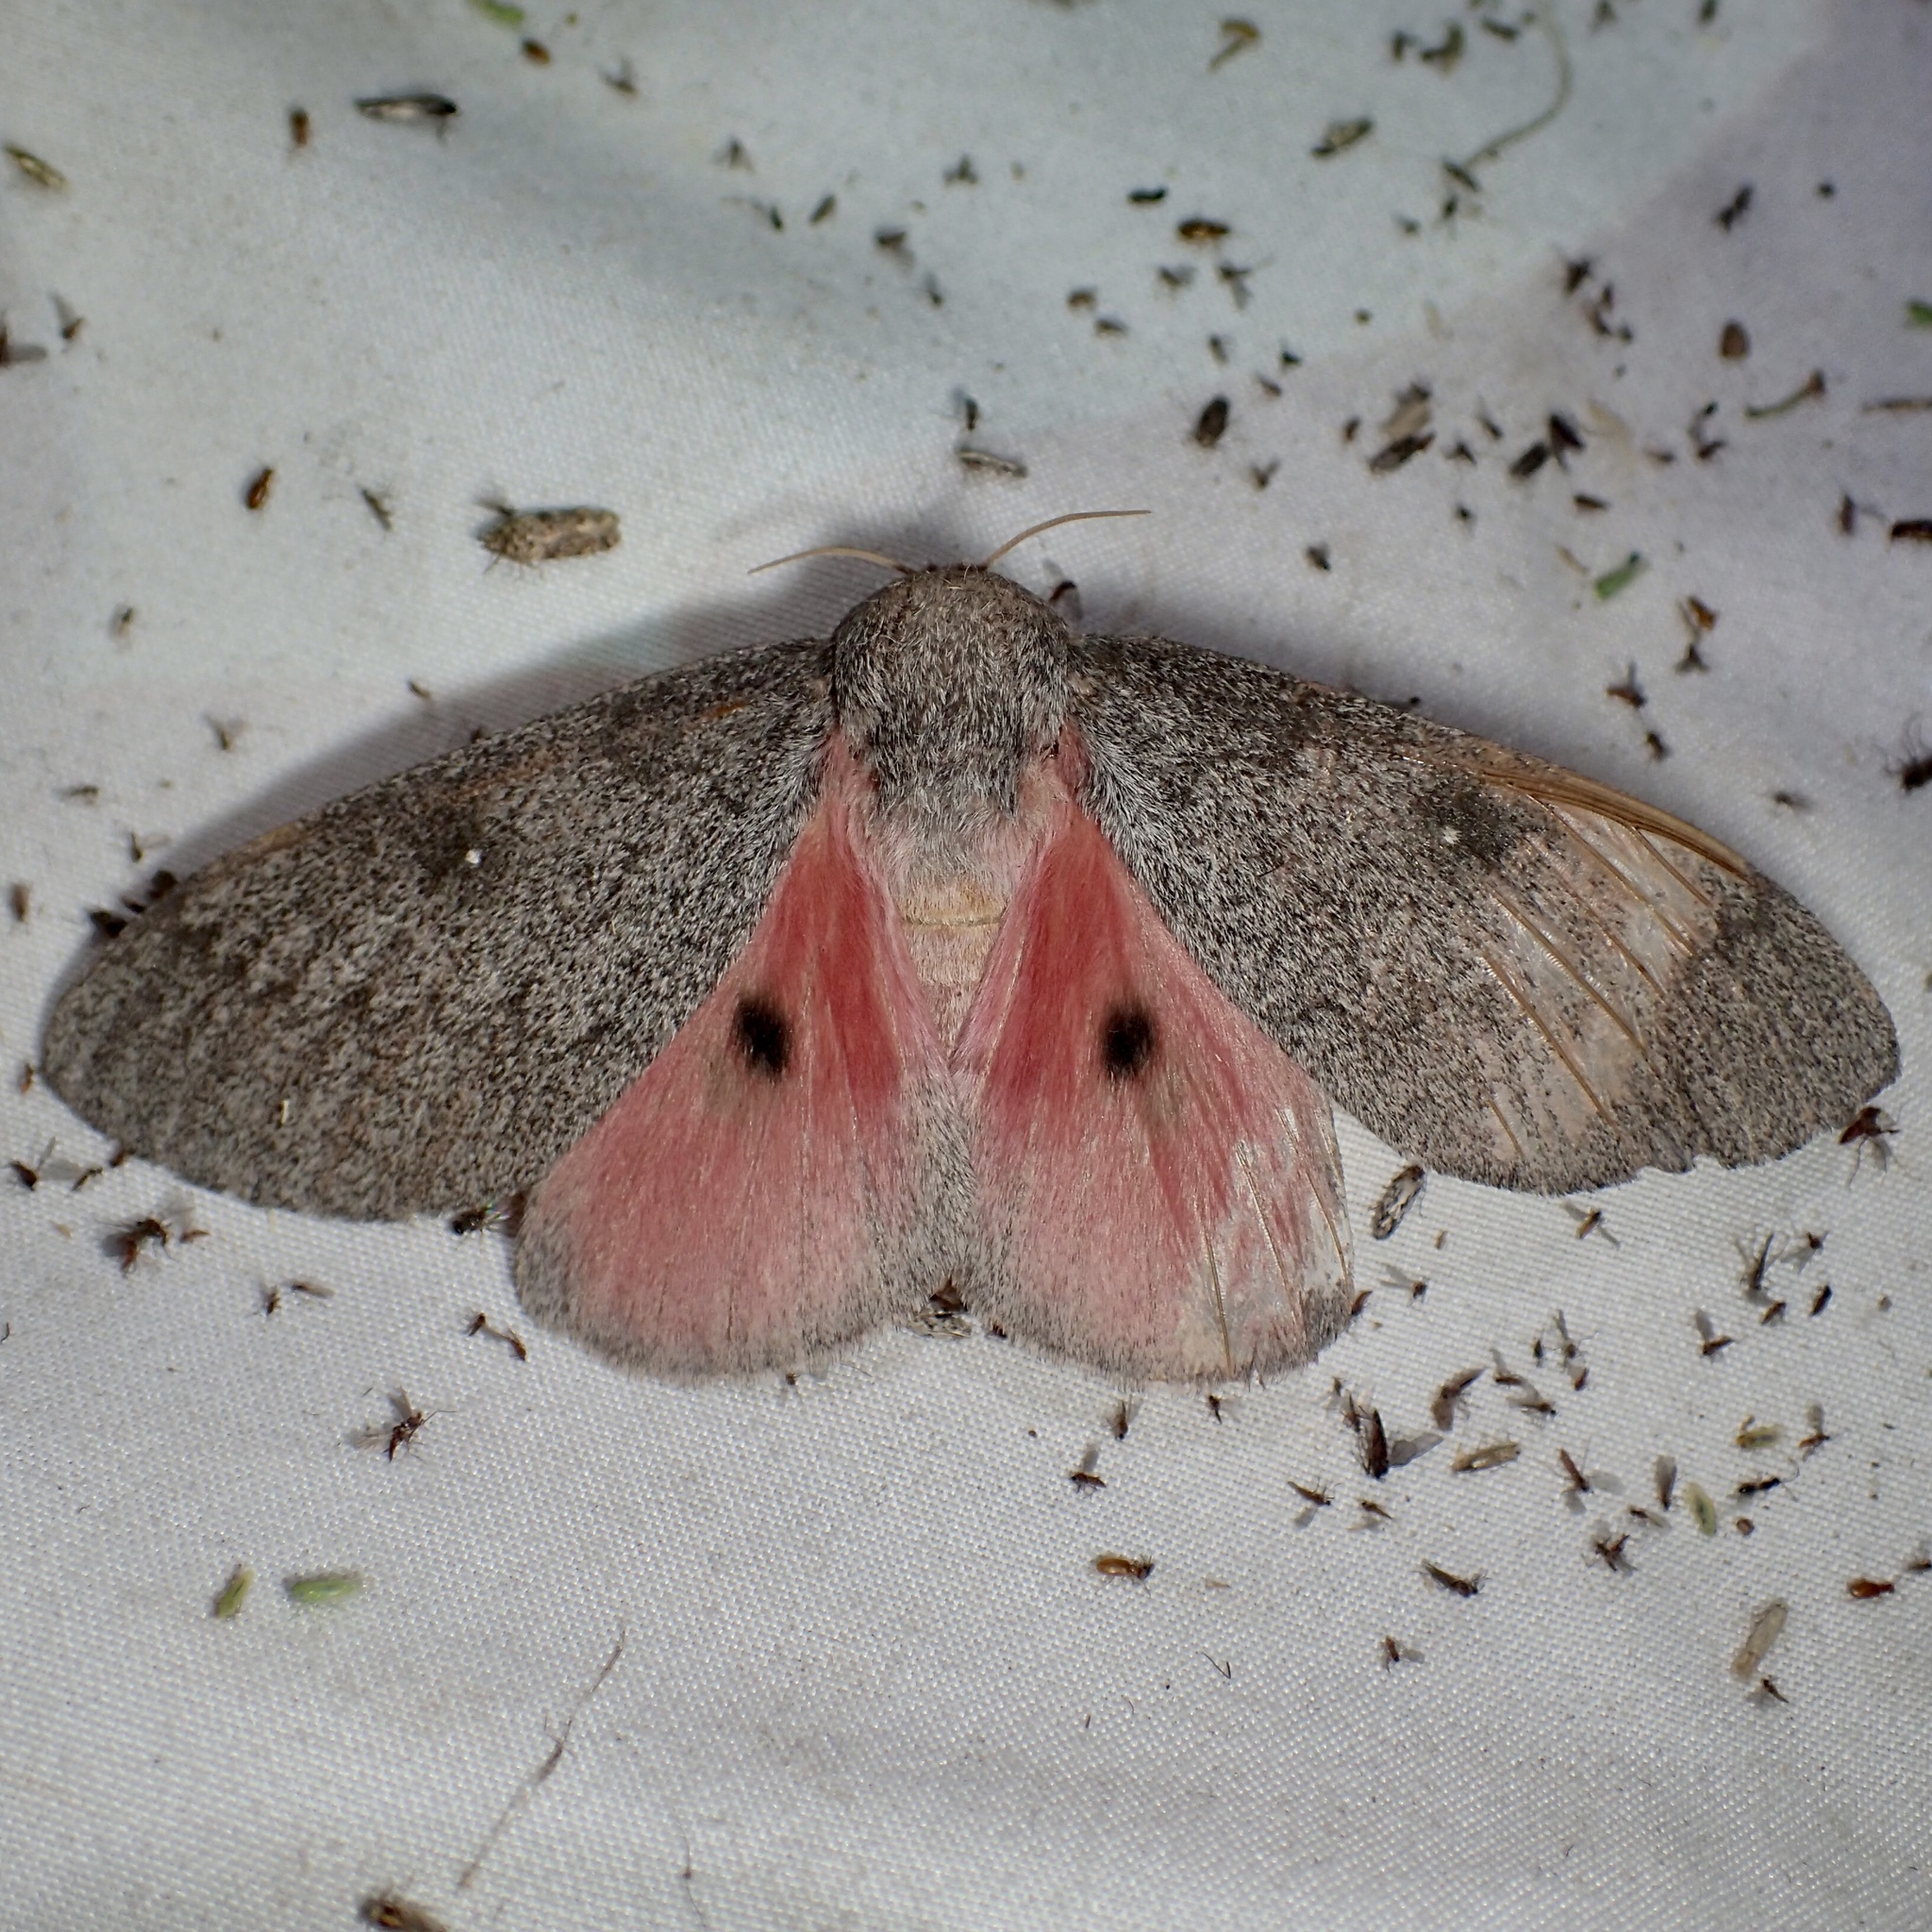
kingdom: Animalia
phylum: Arthropoda
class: Insecta
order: Lepidoptera
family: Saturniidae
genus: Syssphinx
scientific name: Syssphinx hubbardi
